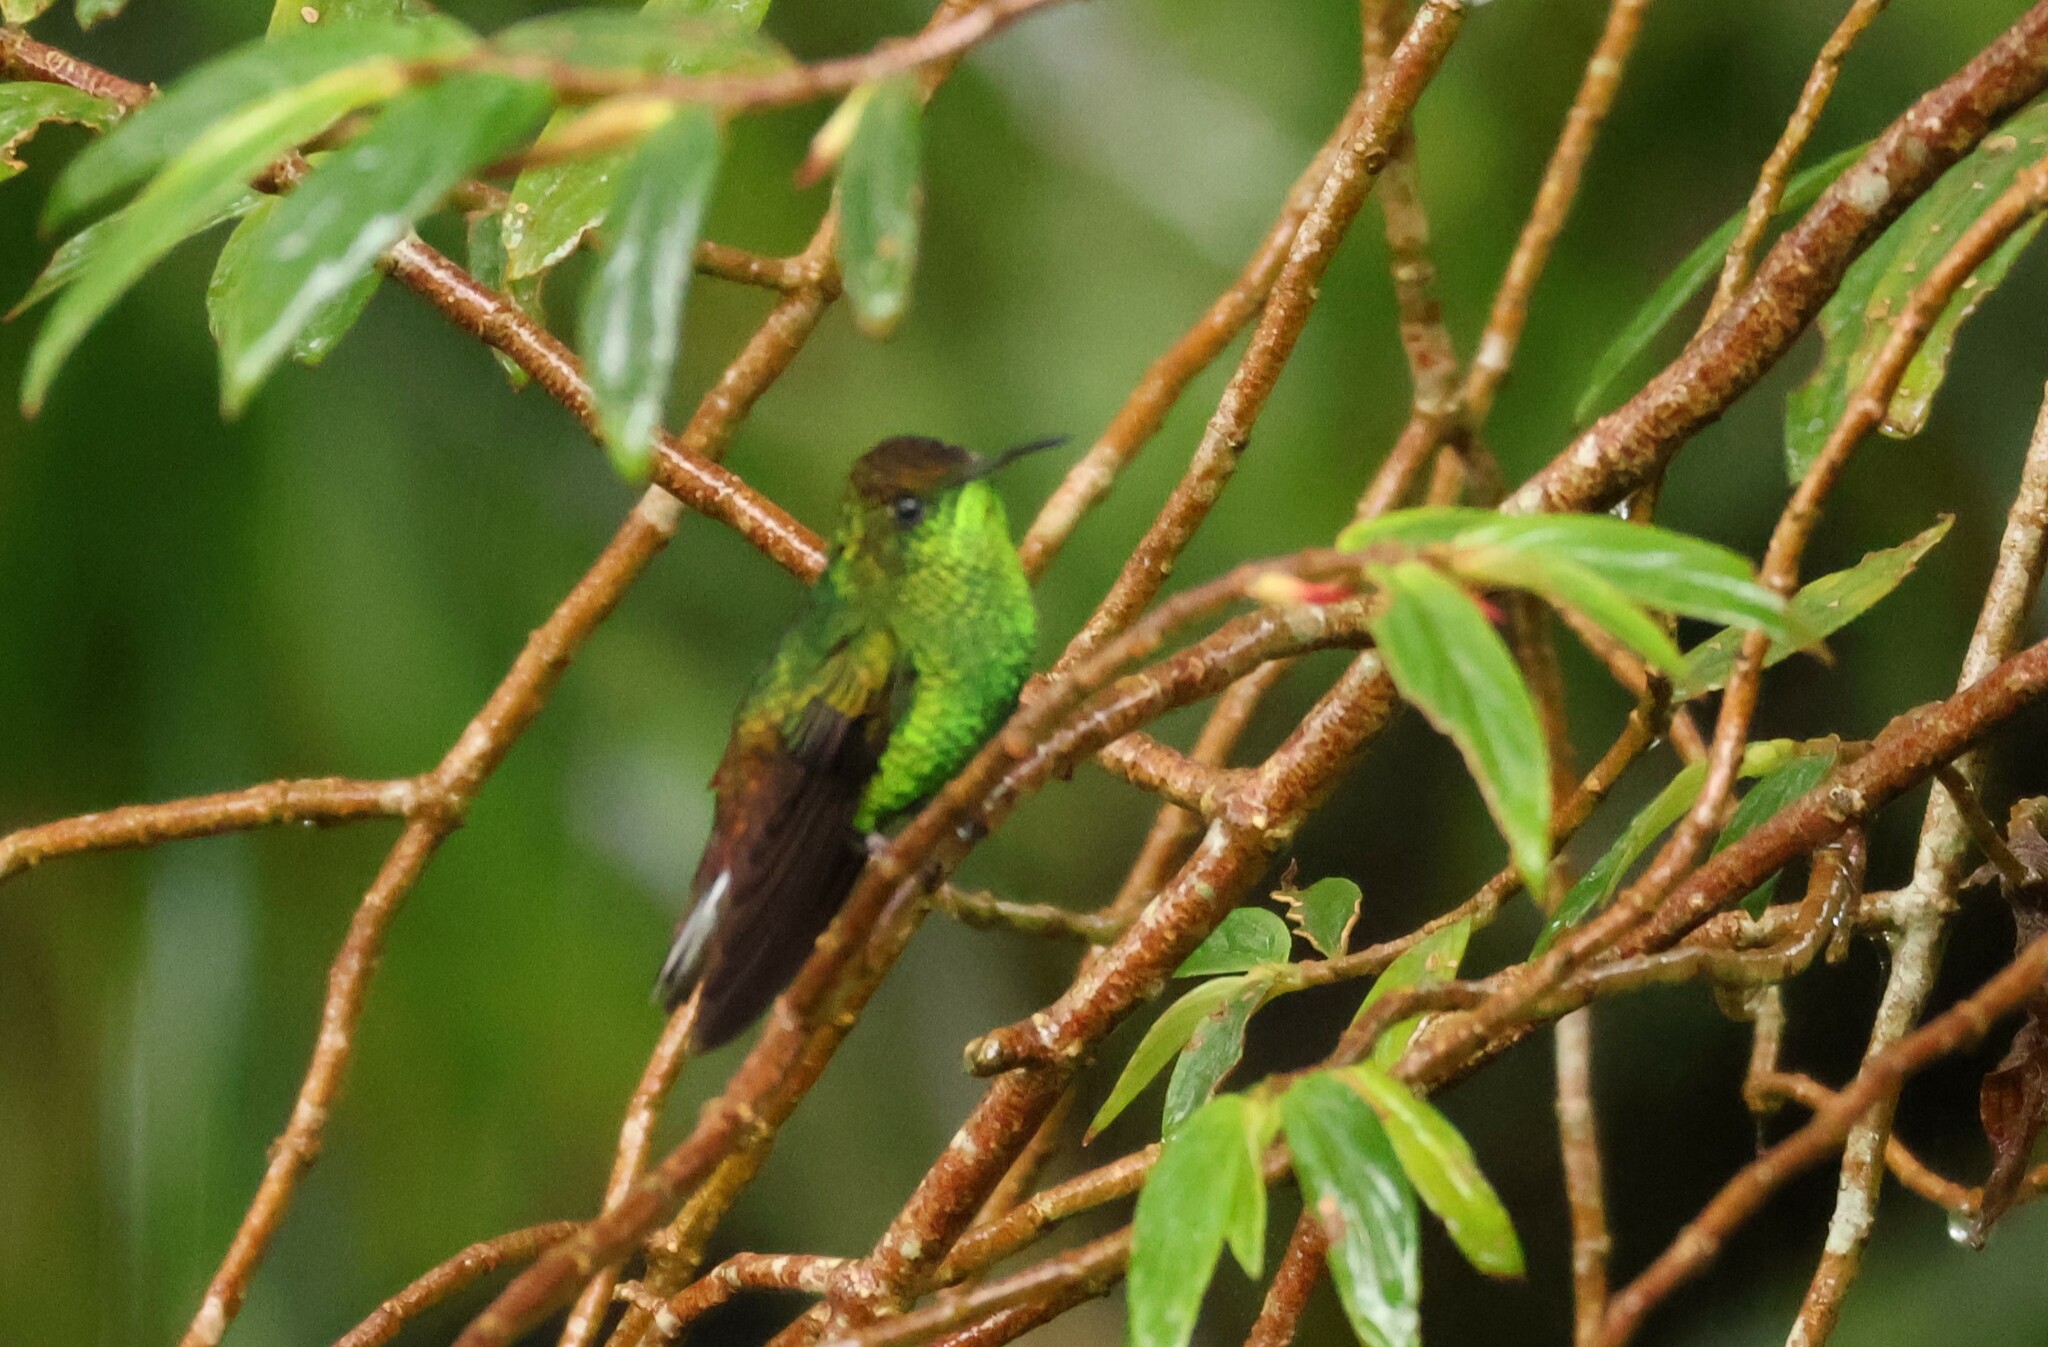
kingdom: Animalia
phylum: Chordata
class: Aves
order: Apodiformes
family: Trochilidae
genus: Microchera
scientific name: Microchera cupreiceps
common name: Coppery-headed emerald
